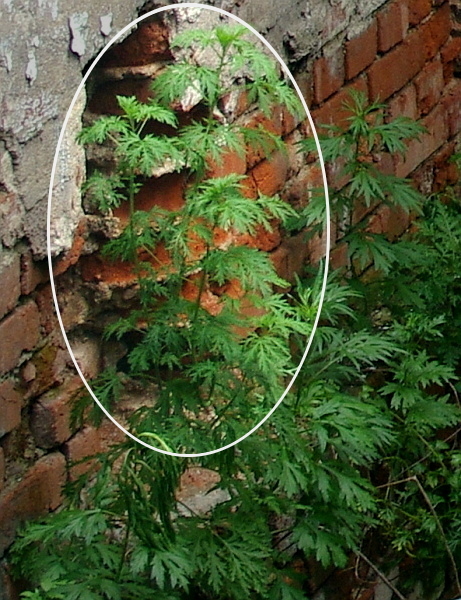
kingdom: Plantae
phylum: Tracheophyta
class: Magnoliopsida
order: Asterales
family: Asteraceae
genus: Artemisia
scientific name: Artemisia sieversiana
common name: Sieversian wormwood
